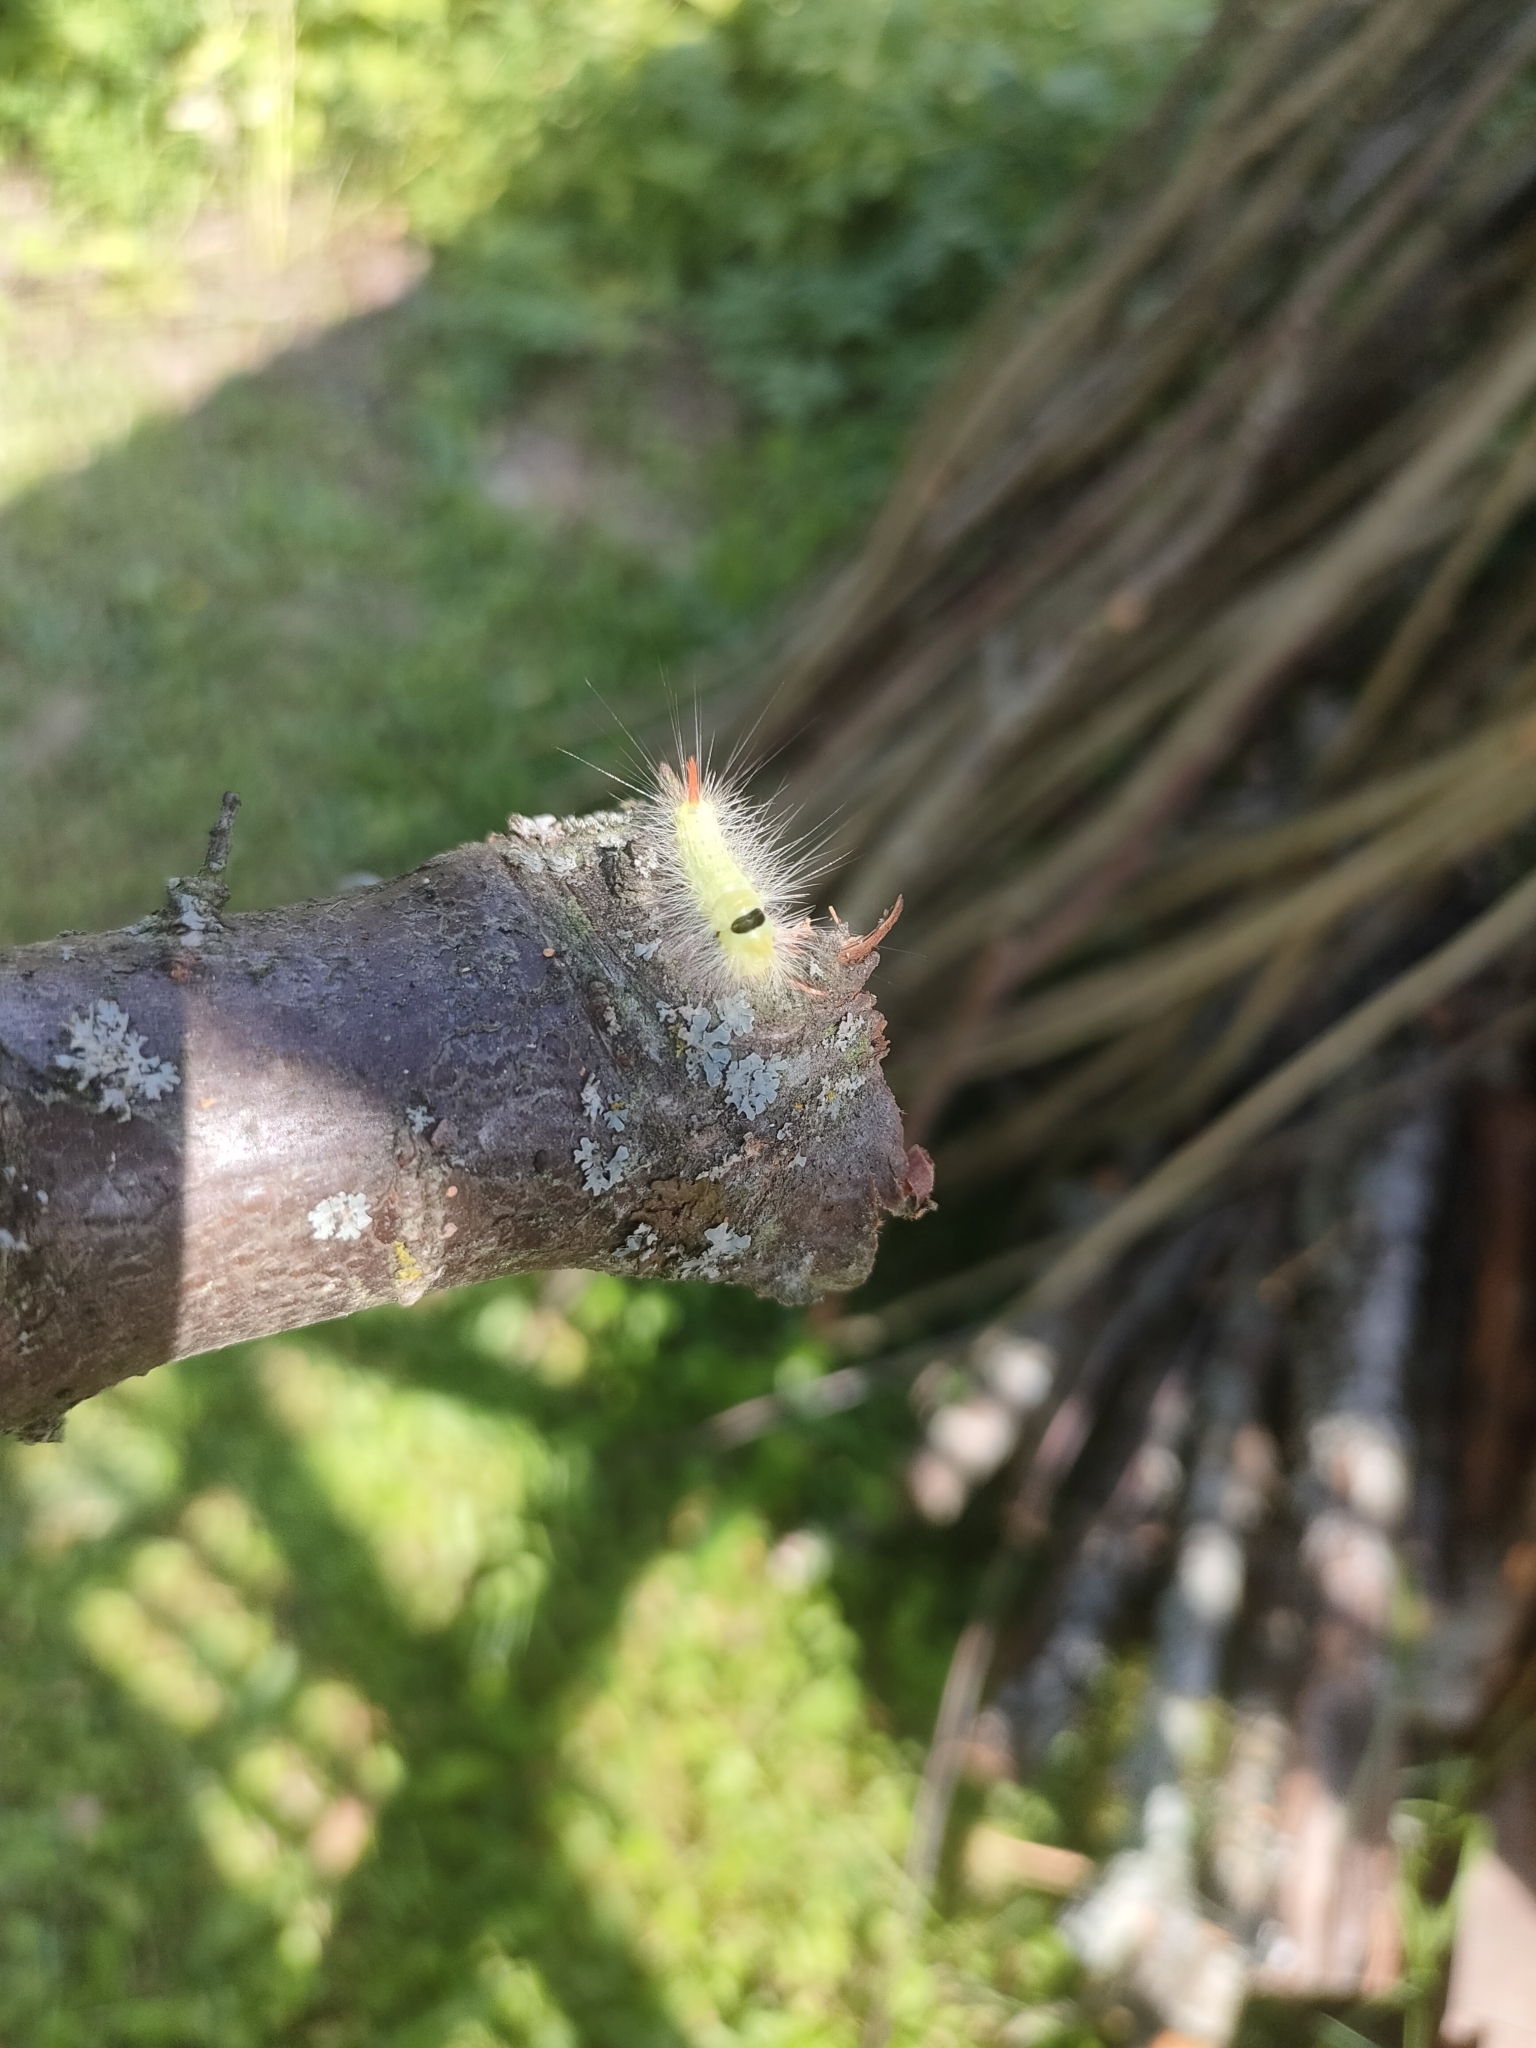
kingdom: Animalia
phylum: Arthropoda
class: Insecta
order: Lepidoptera
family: Erebidae
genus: Calliteara
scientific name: Calliteara pudibunda
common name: Pale tussock
